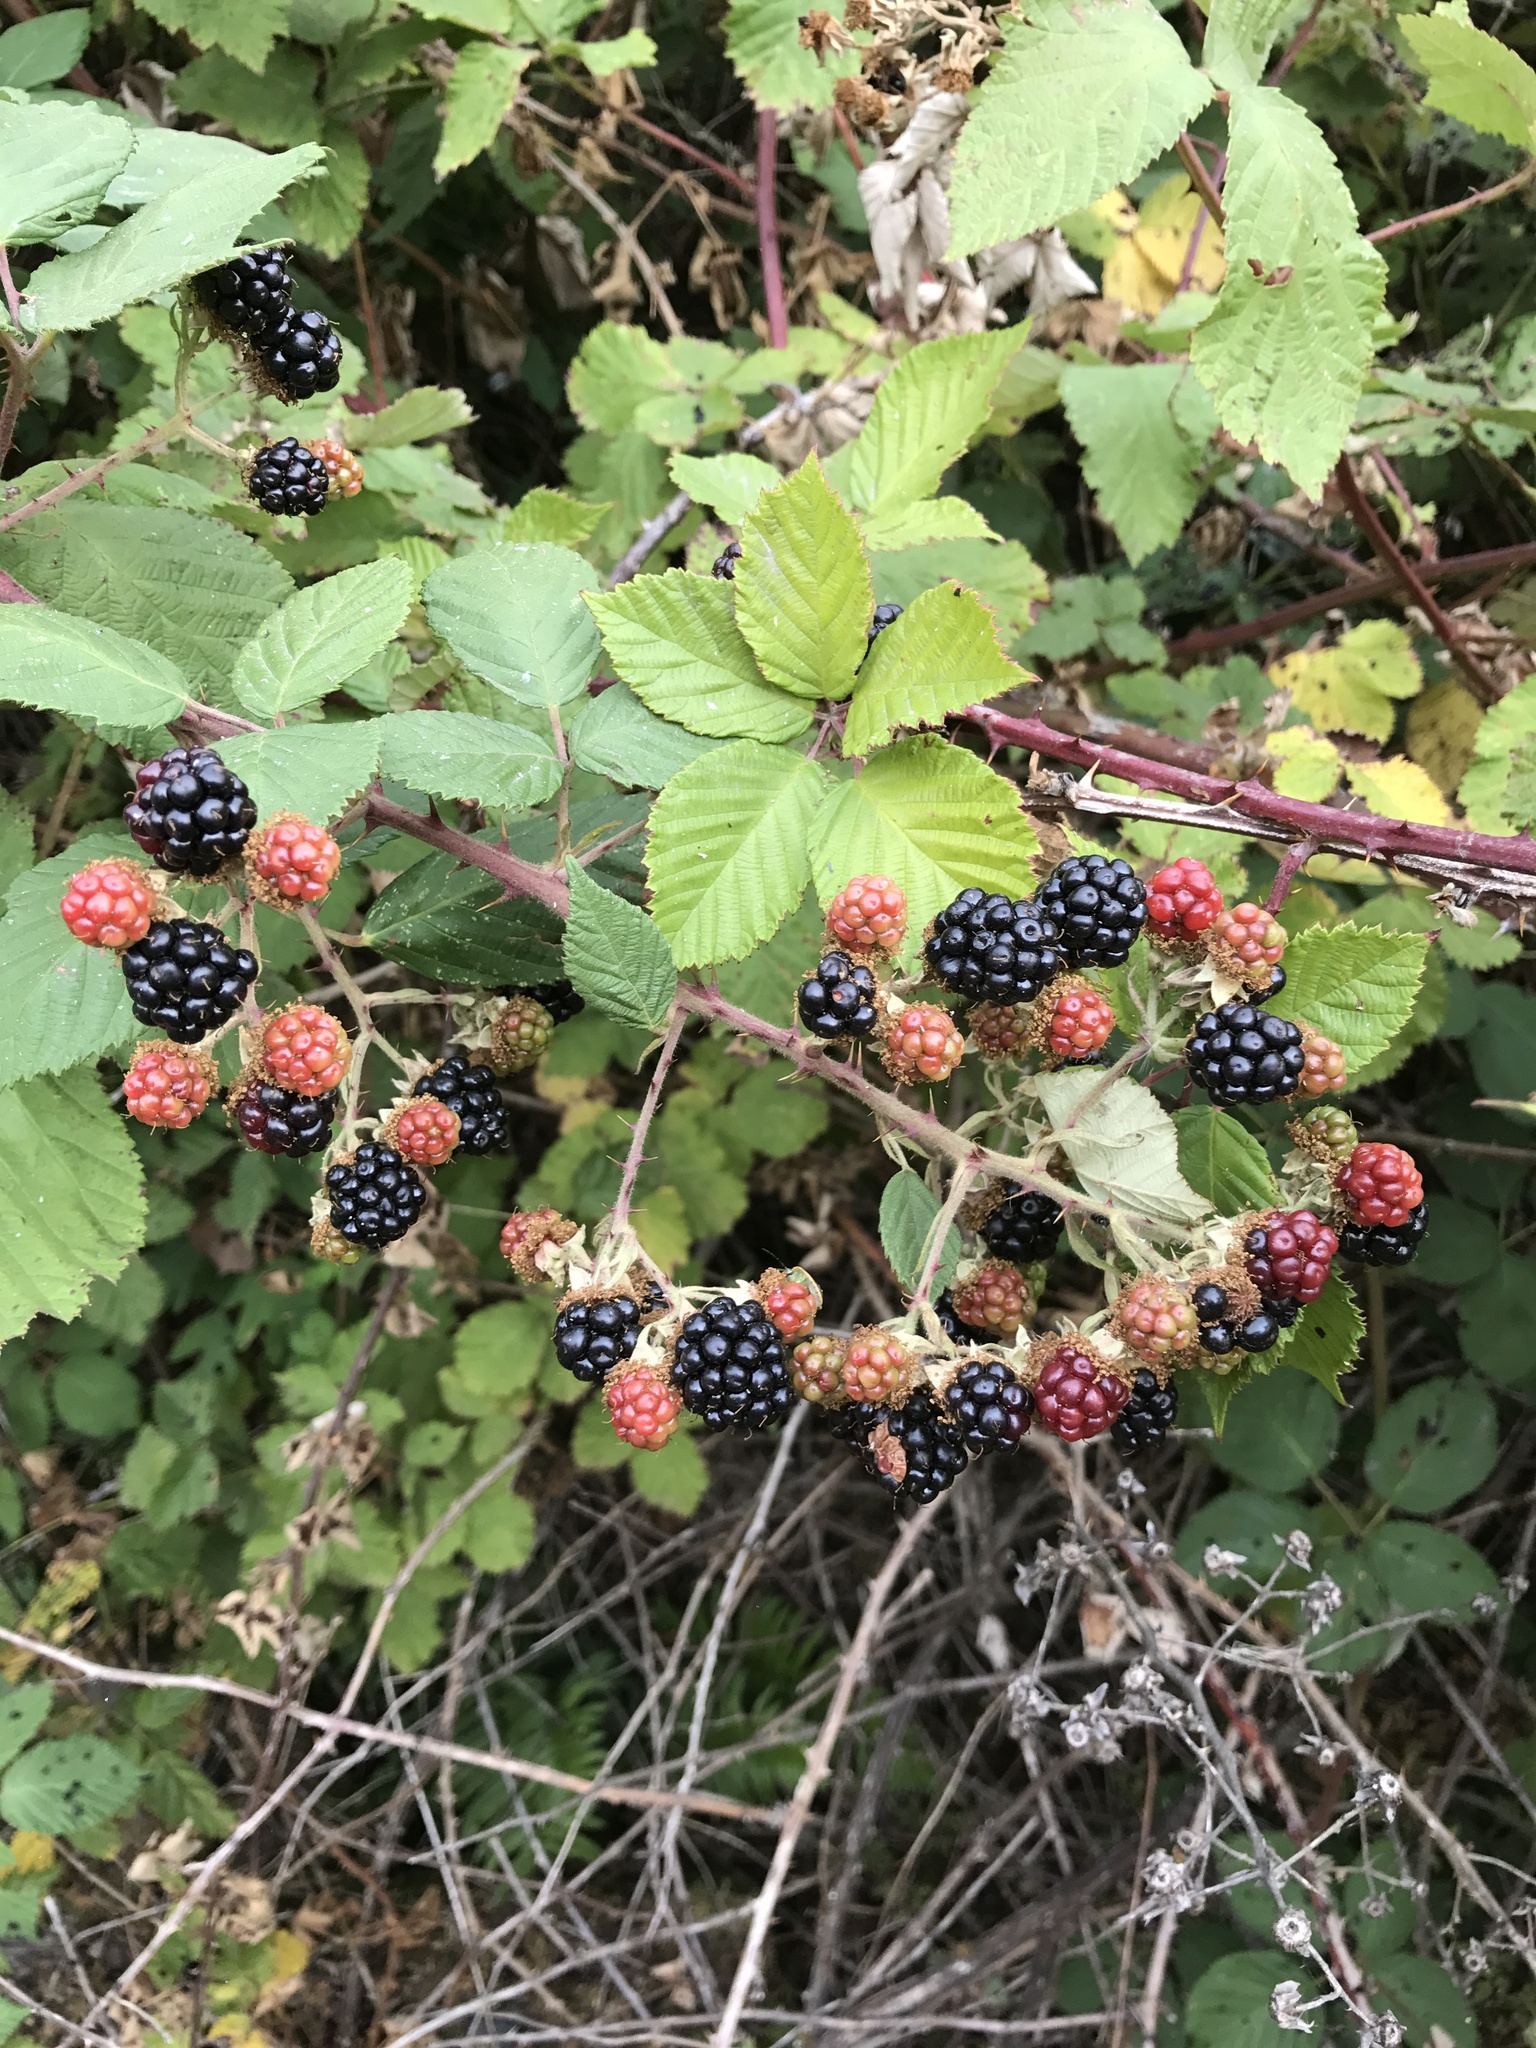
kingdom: Plantae
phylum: Tracheophyta
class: Magnoliopsida
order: Rosales
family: Rosaceae
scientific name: Rosaceae
